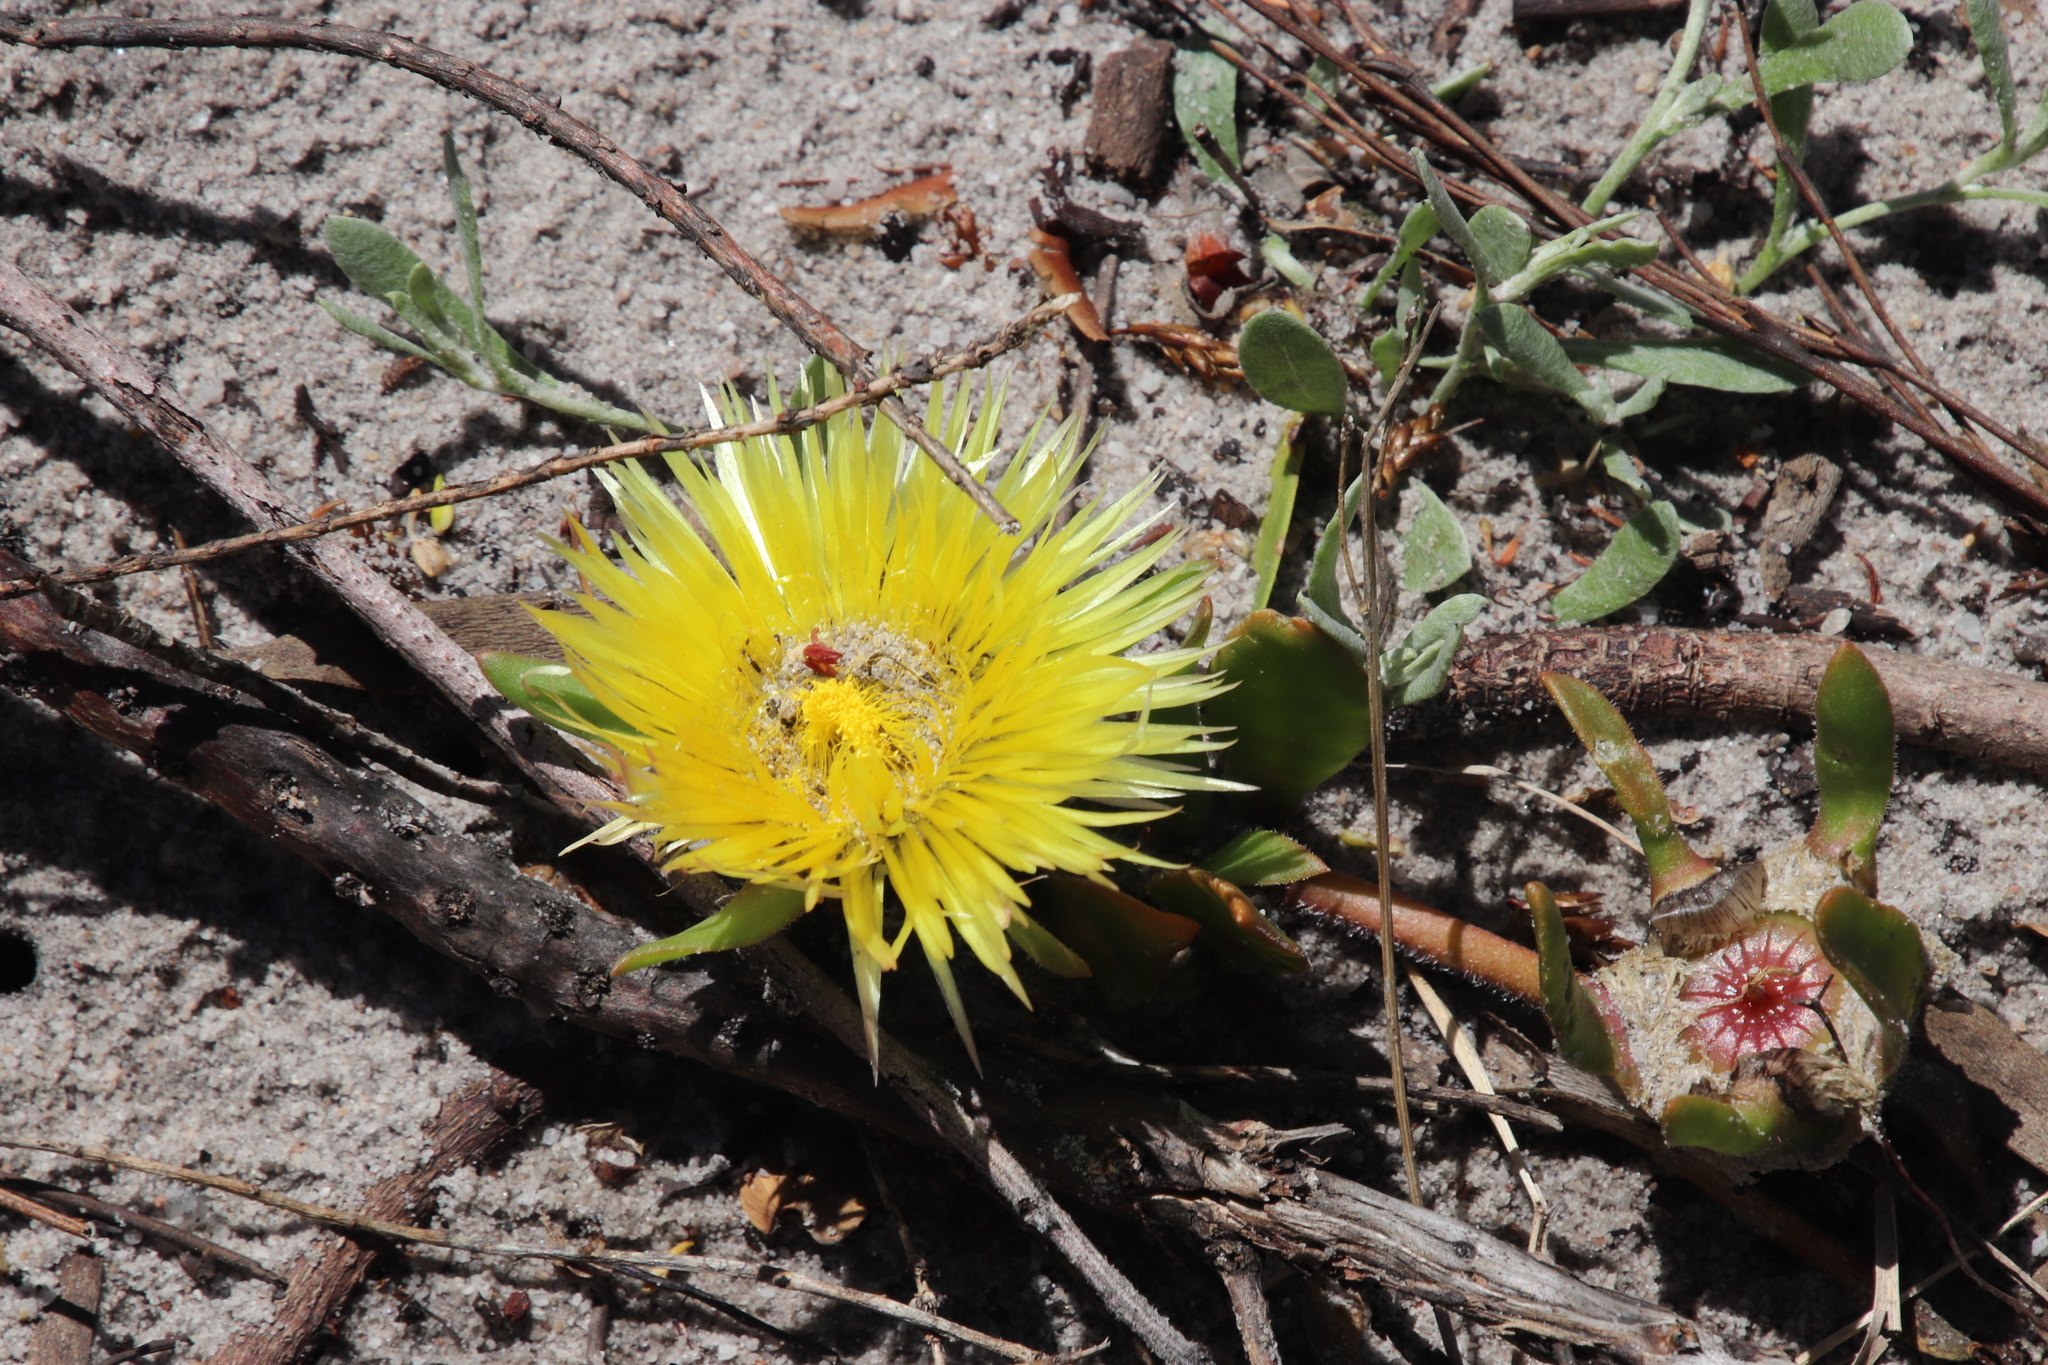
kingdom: Plantae
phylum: Tracheophyta
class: Magnoliopsida
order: Caryophyllales
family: Aizoaceae
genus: Carpanthea
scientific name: Carpanthea pomeridiana
